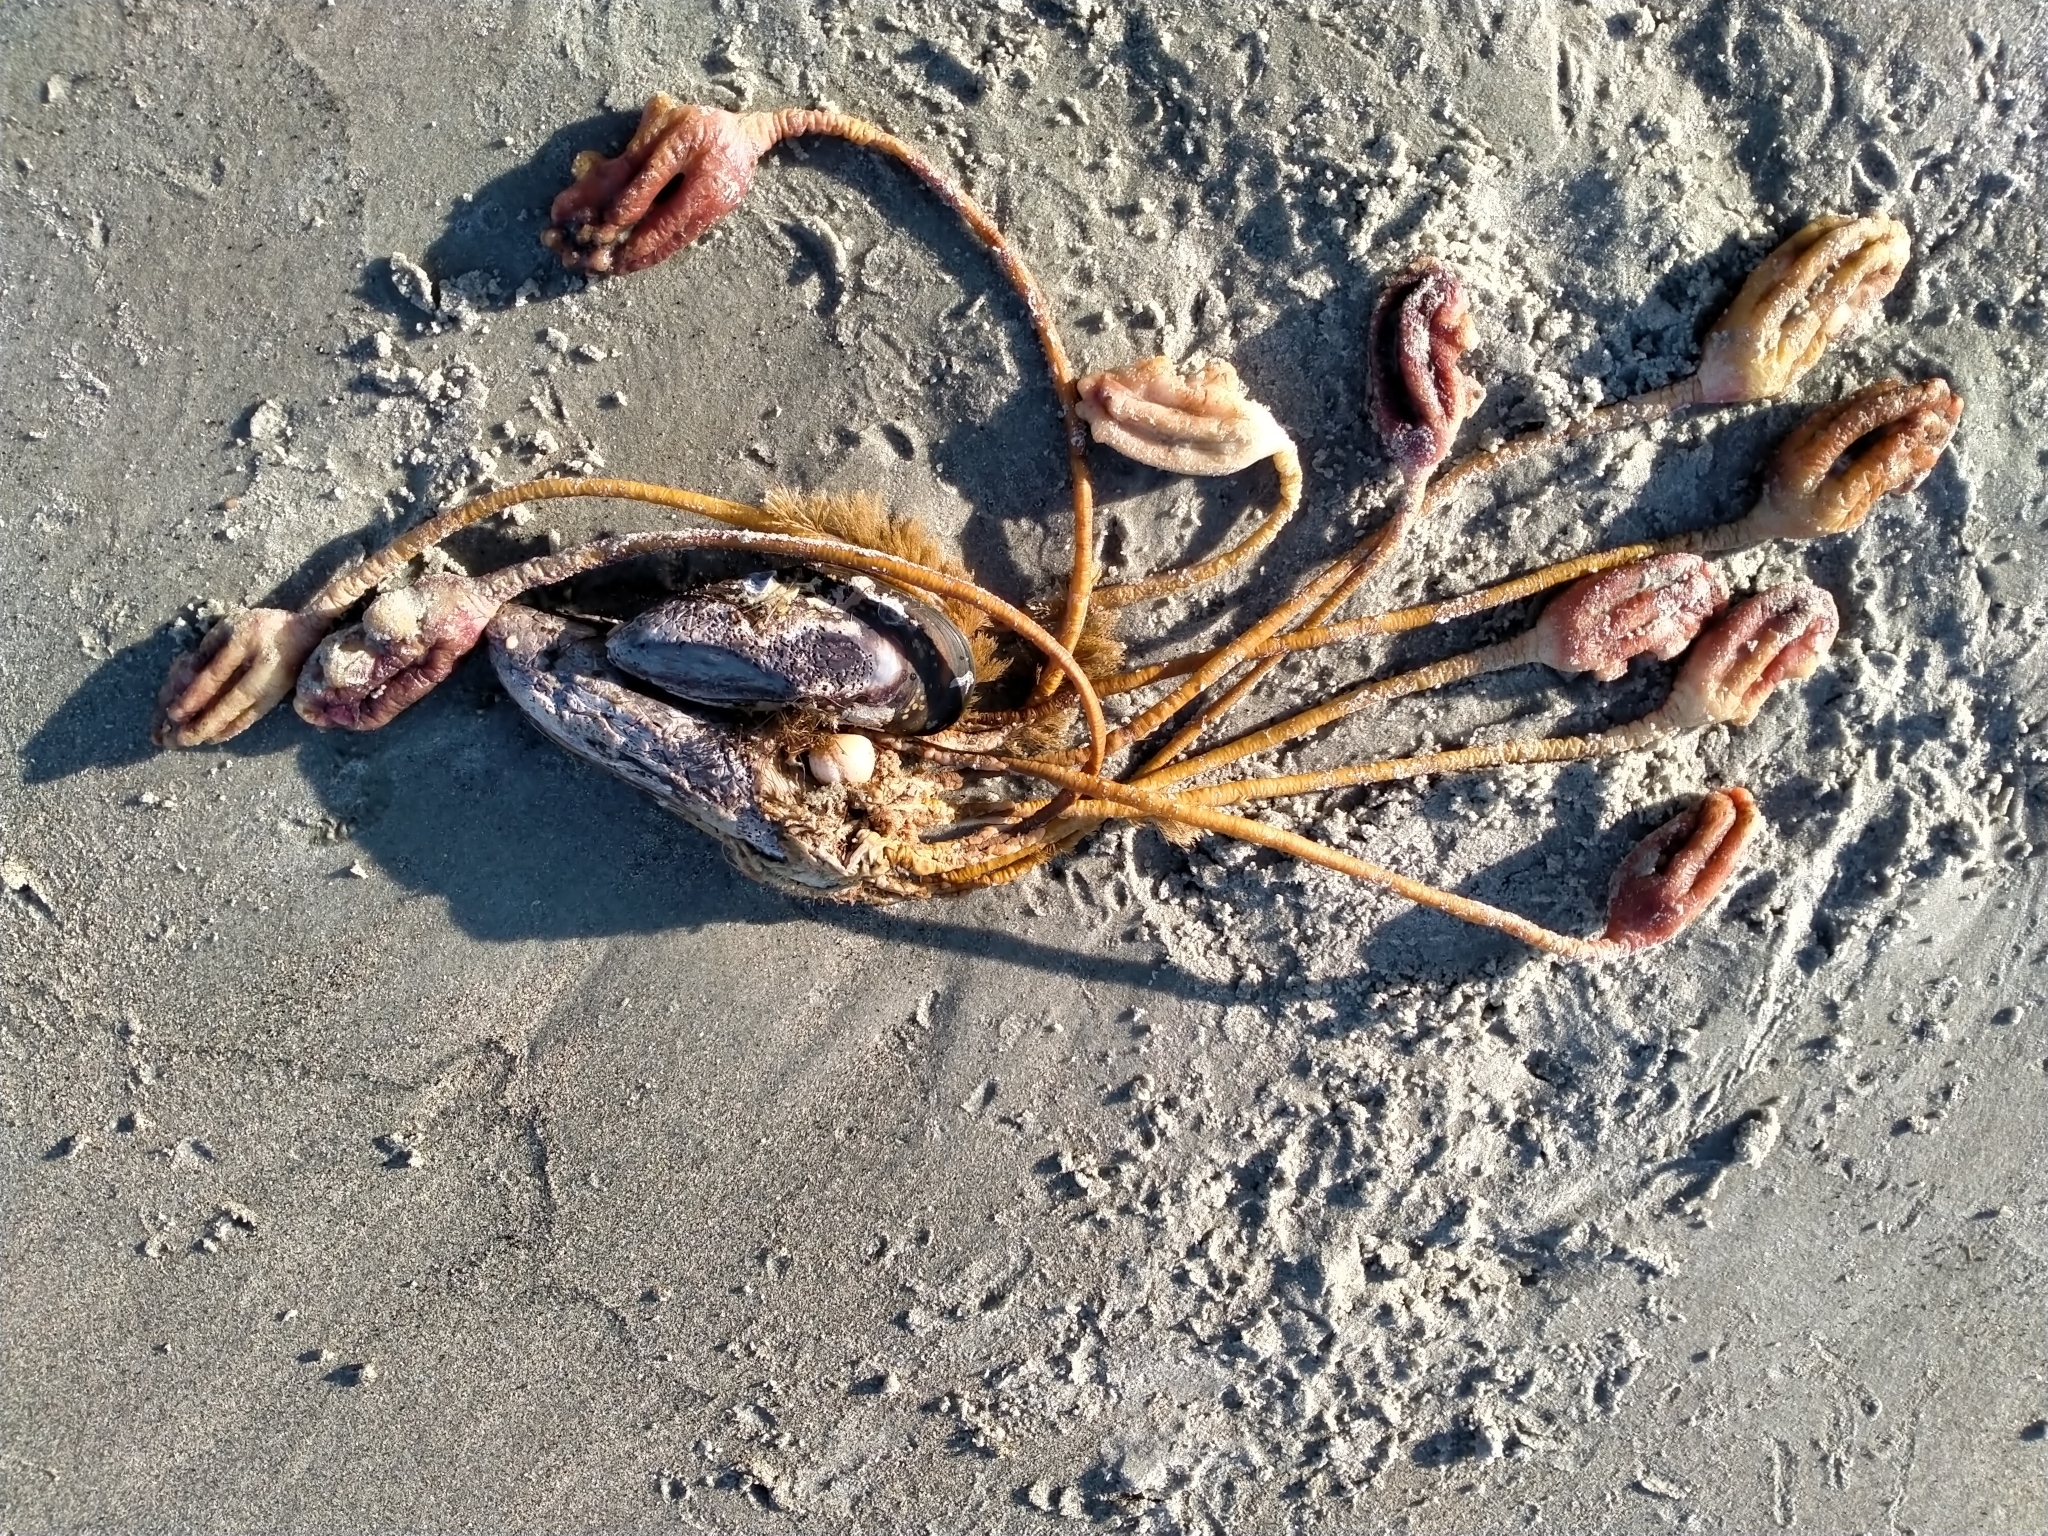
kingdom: Animalia
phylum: Chordata
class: Ascidiacea
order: Stolidobranchia
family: Pyuridae
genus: Pyura
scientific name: Pyura pachydermatina
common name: Sea tulip
